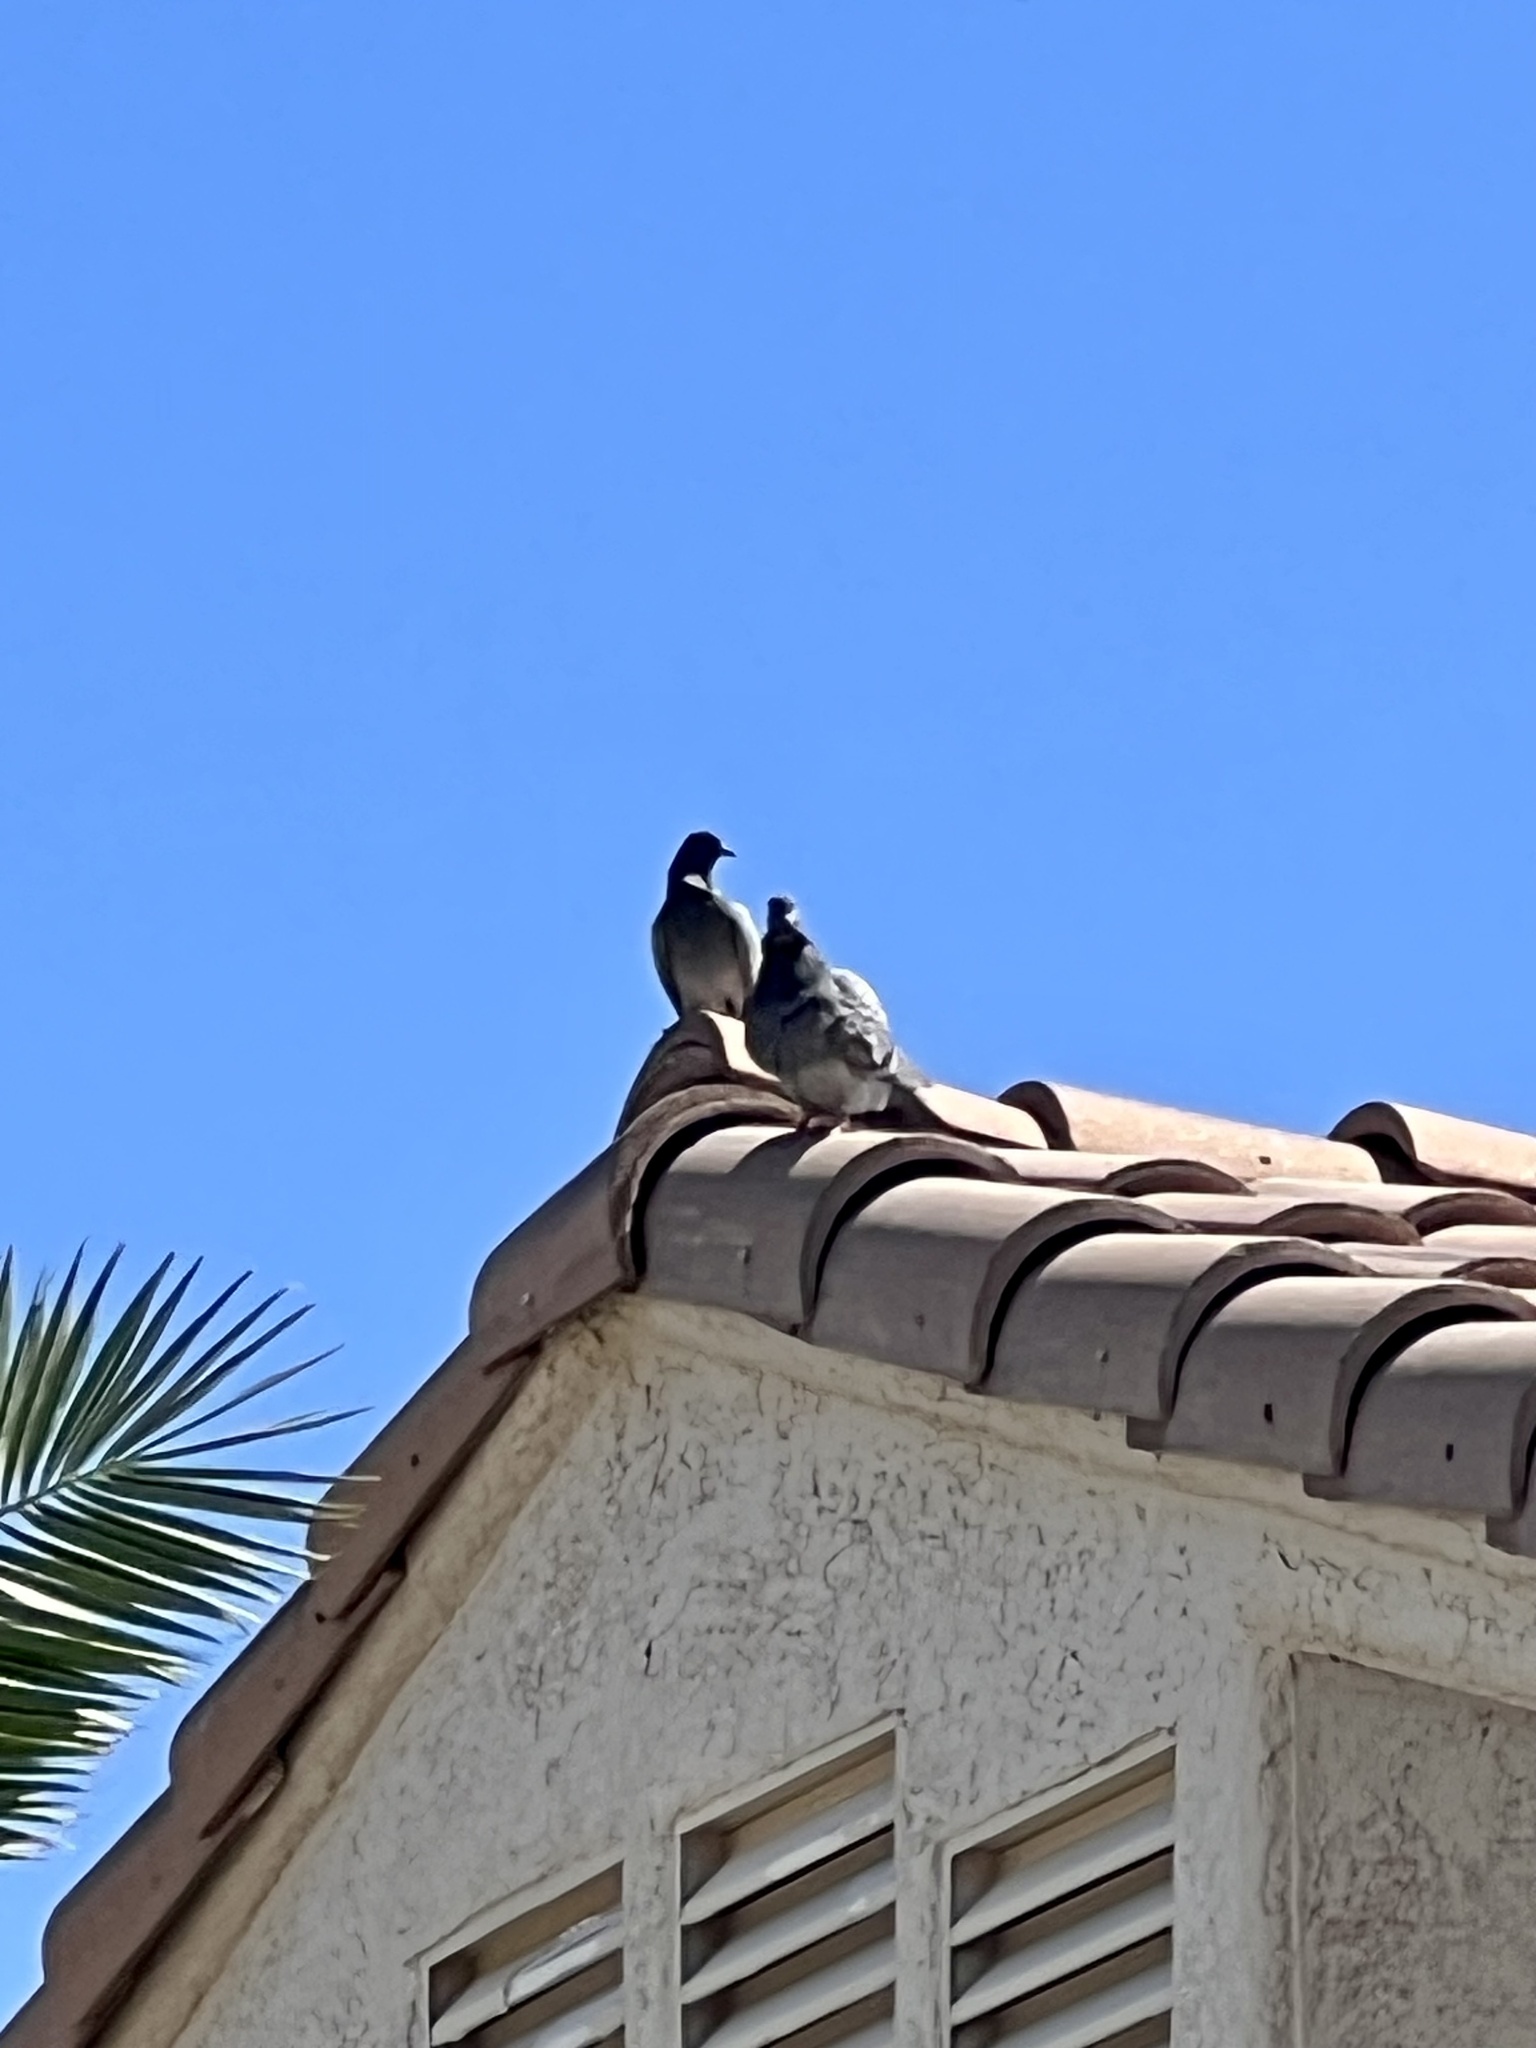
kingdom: Animalia
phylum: Chordata
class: Aves
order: Columbiformes
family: Columbidae
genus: Columba
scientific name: Columba livia
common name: Rock pigeon
